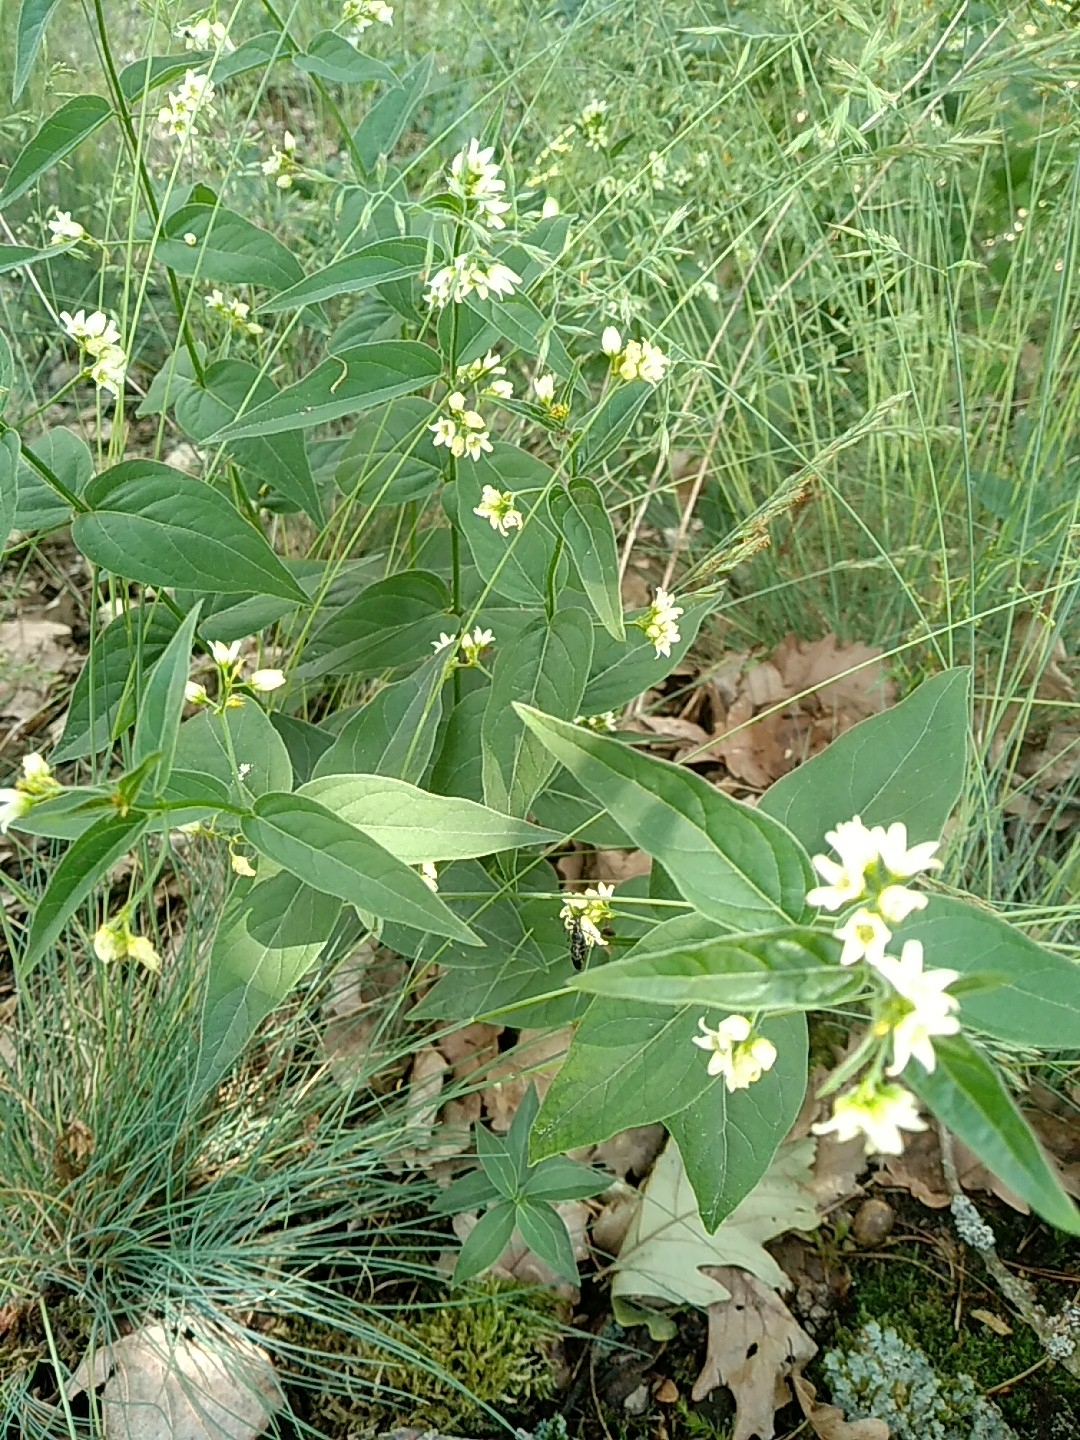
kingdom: Plantae
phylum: Tracheophyta
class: Magnoliopsida
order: Gentianales
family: Apocynaceae
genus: Vincetoxicum
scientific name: Vincetoxicum hirundinaria
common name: White swallowwort
